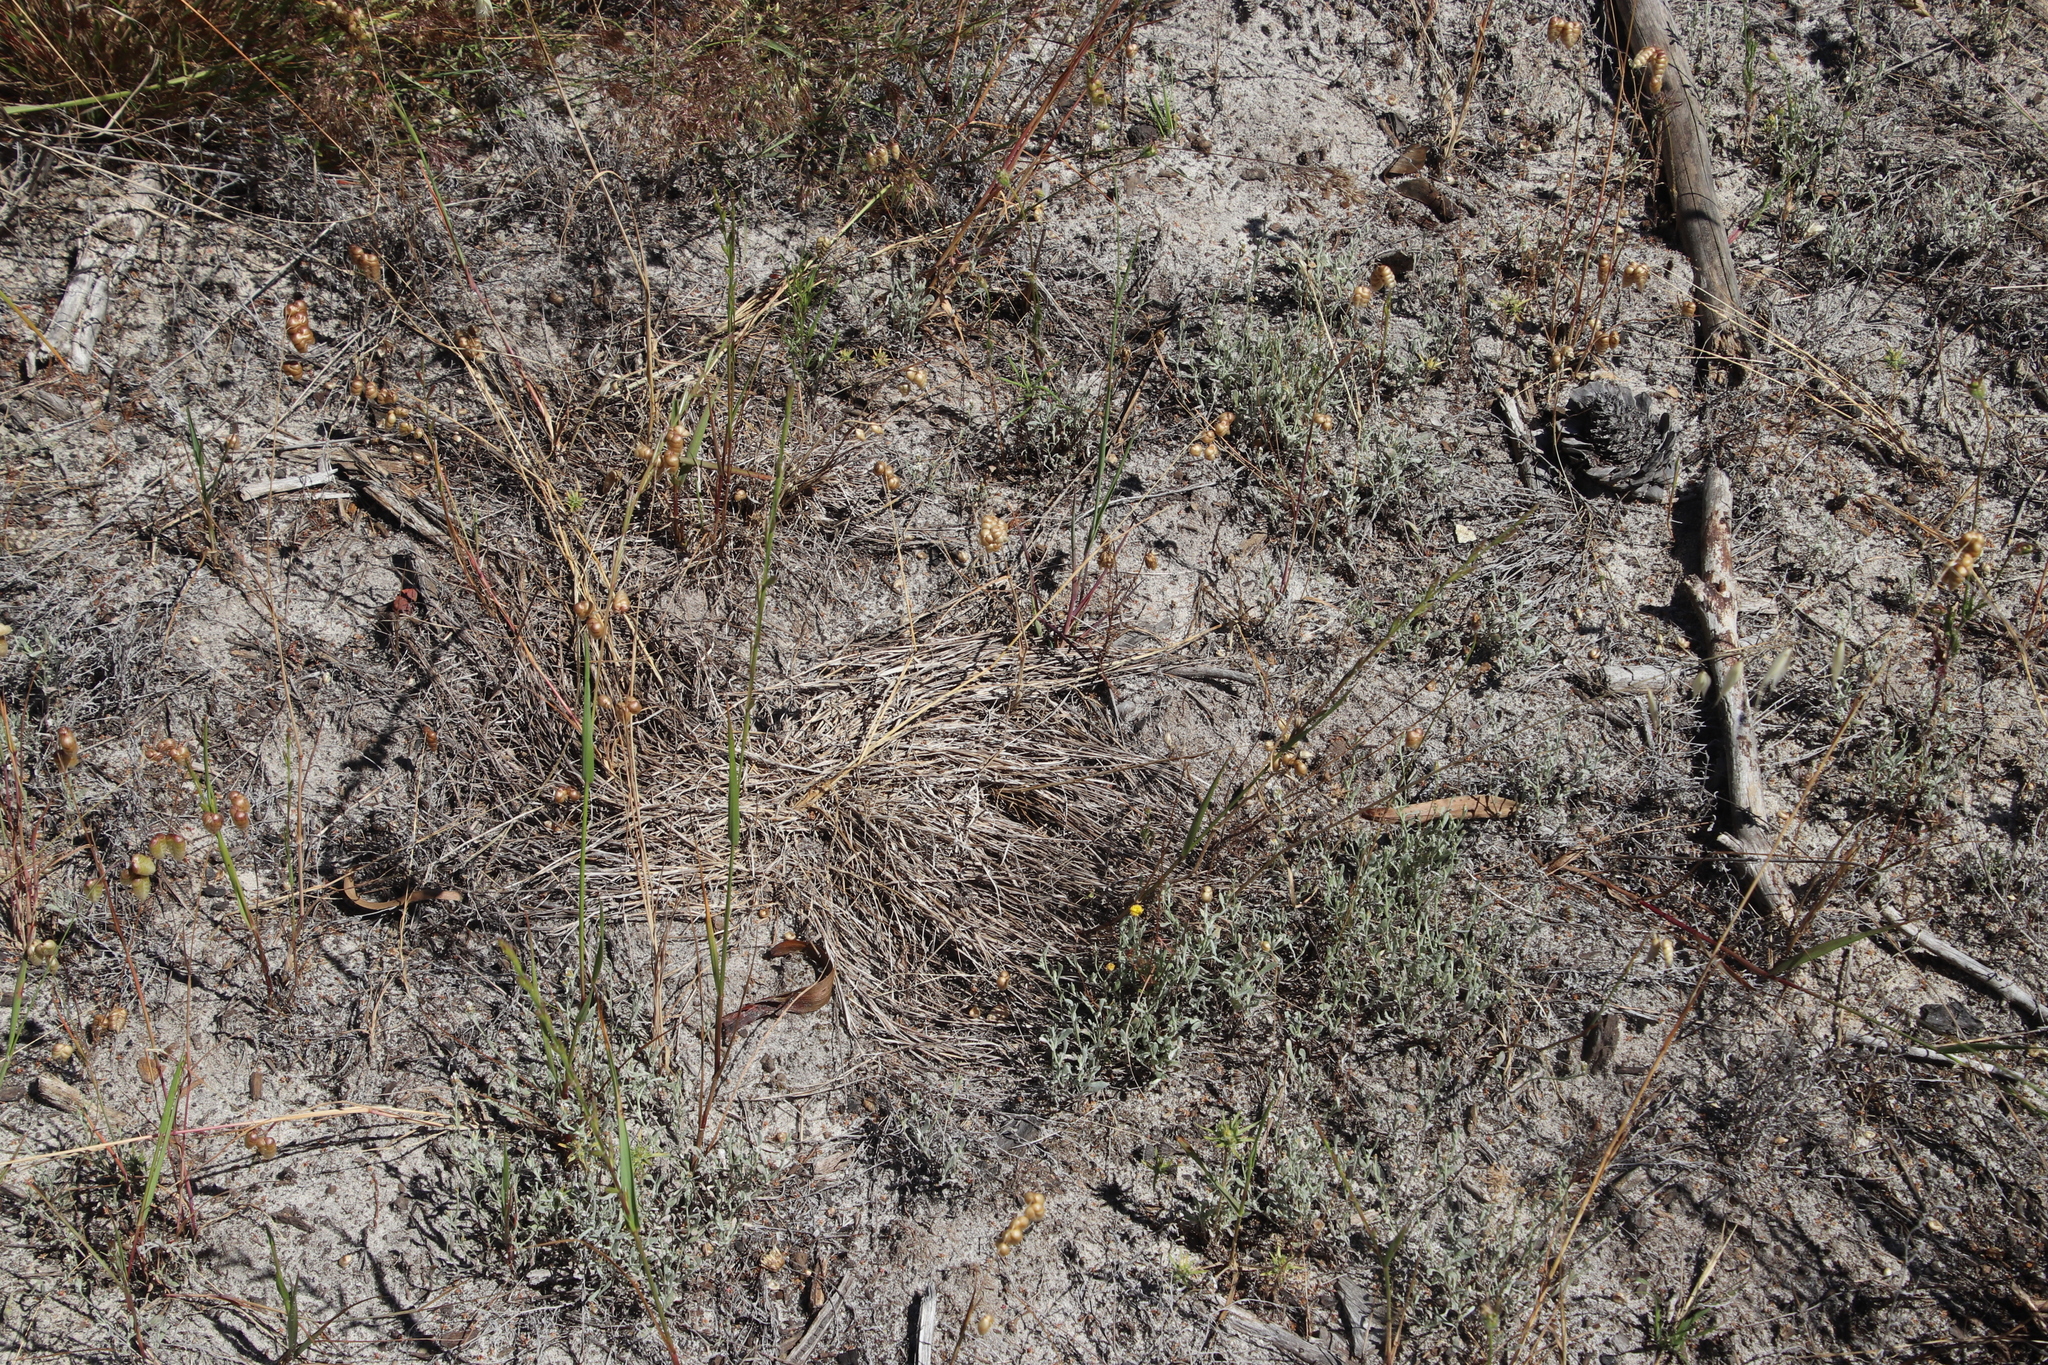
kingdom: Plantae
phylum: Tracheophyta
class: Magnoliopsida
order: Asterales
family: Asteraceae
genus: Helichrysum
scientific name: Helichrysum indicum
